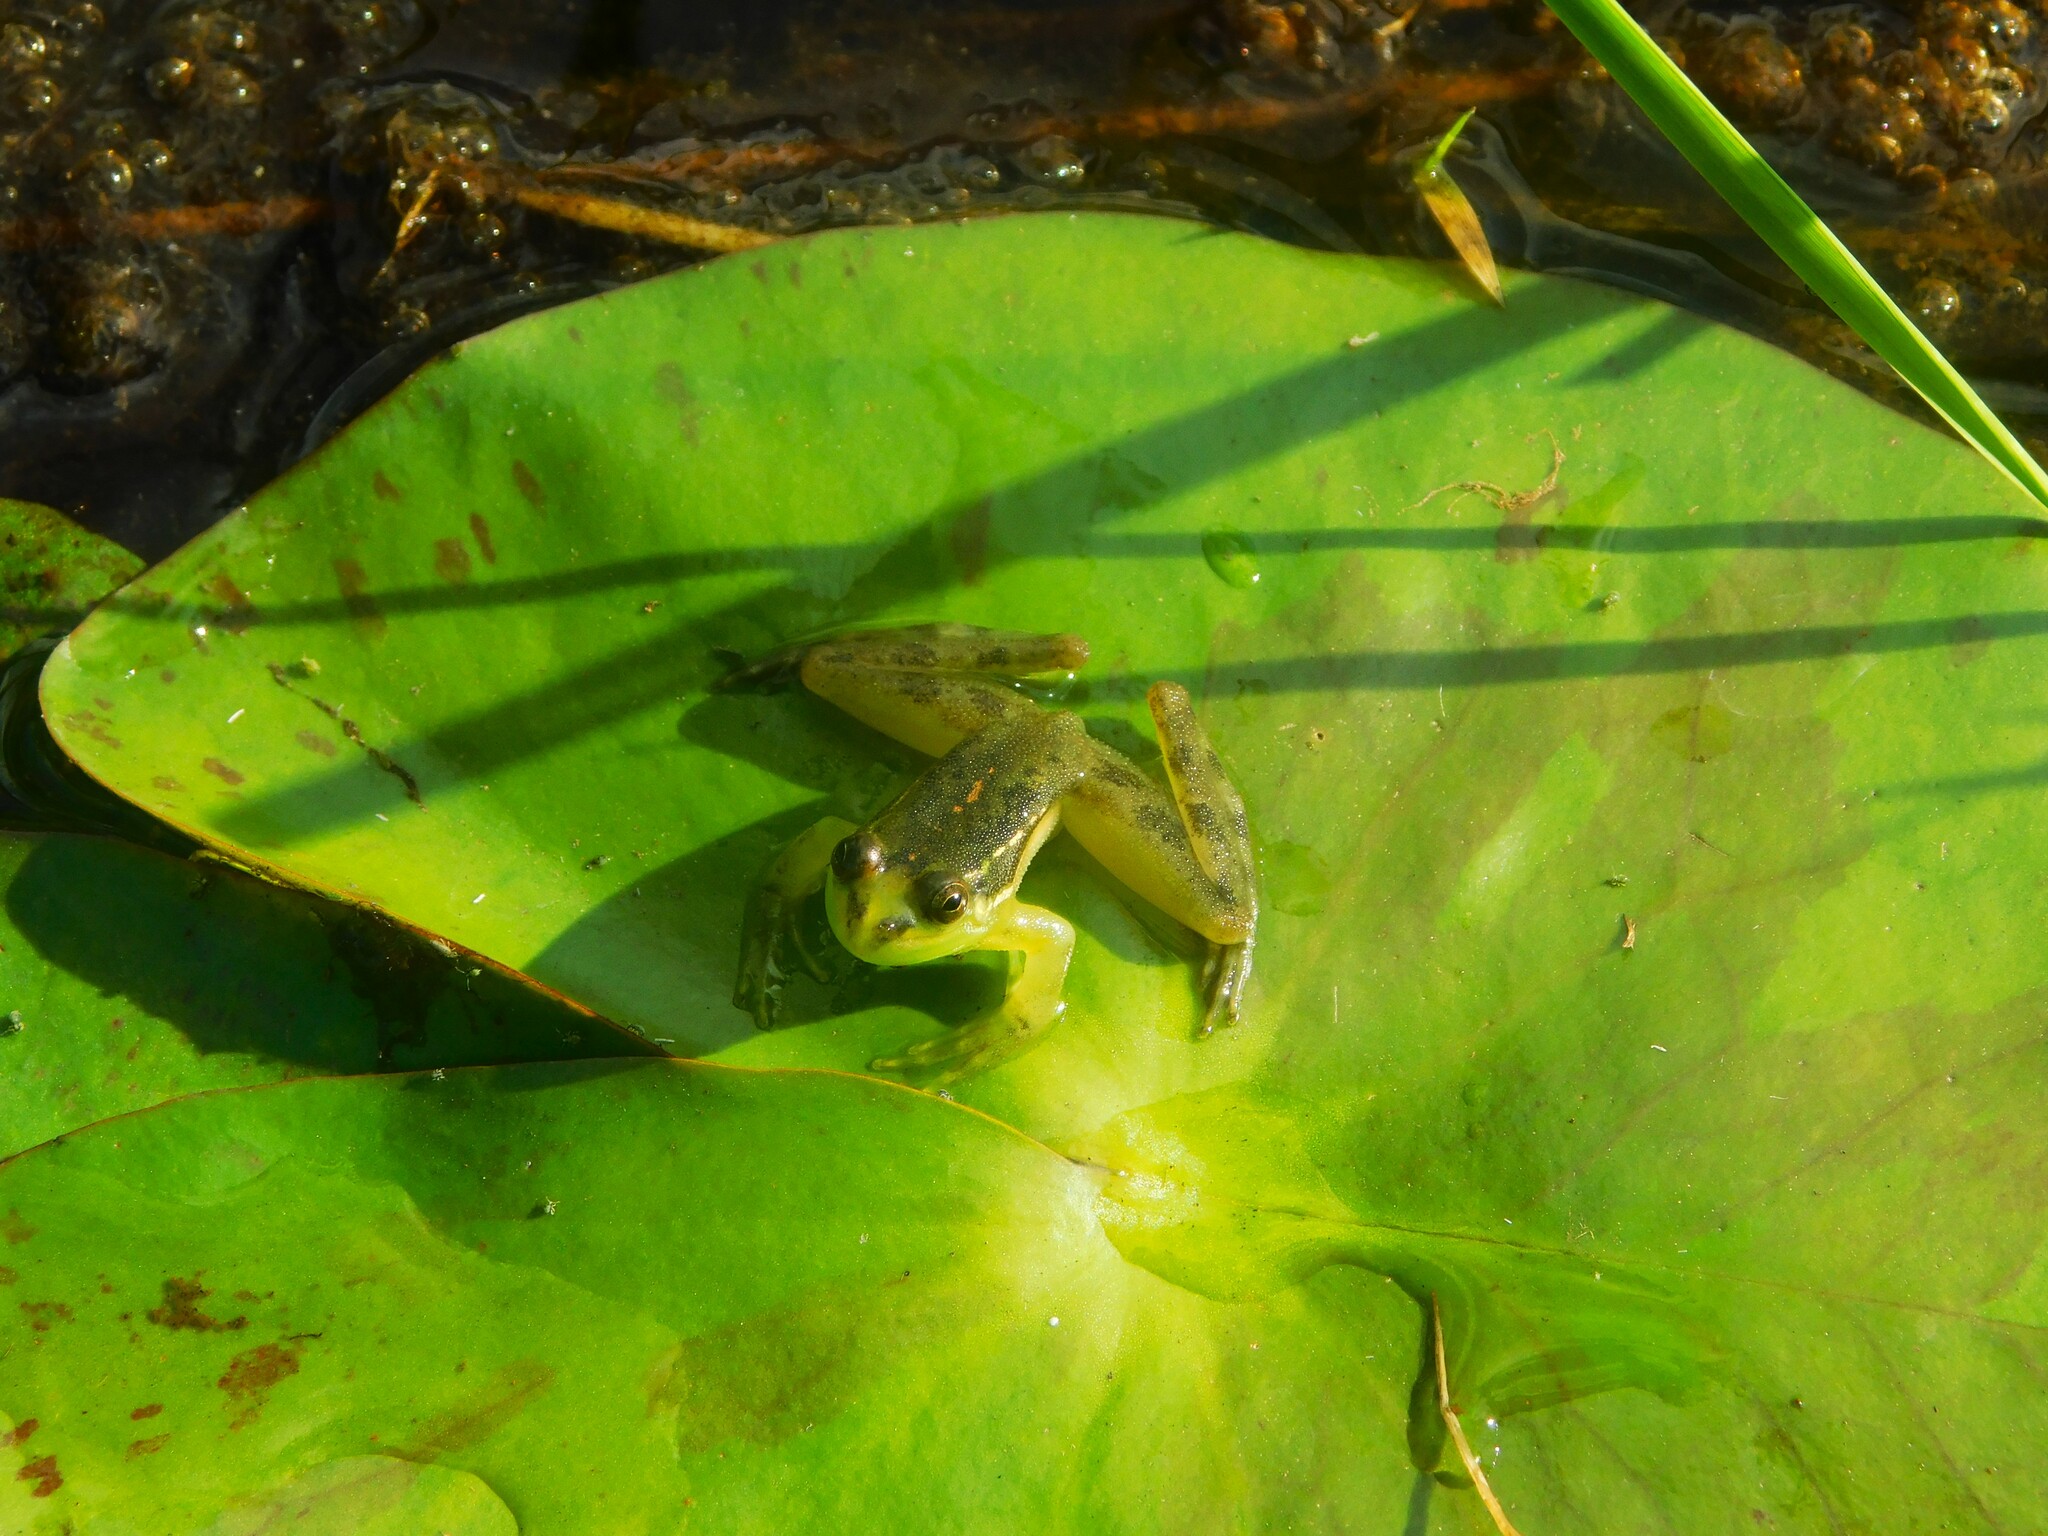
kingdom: Animalia
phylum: Chordata
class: Amphibia
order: Anura
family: Hylidae
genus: Lysapsus
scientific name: Lysapsus limellum
